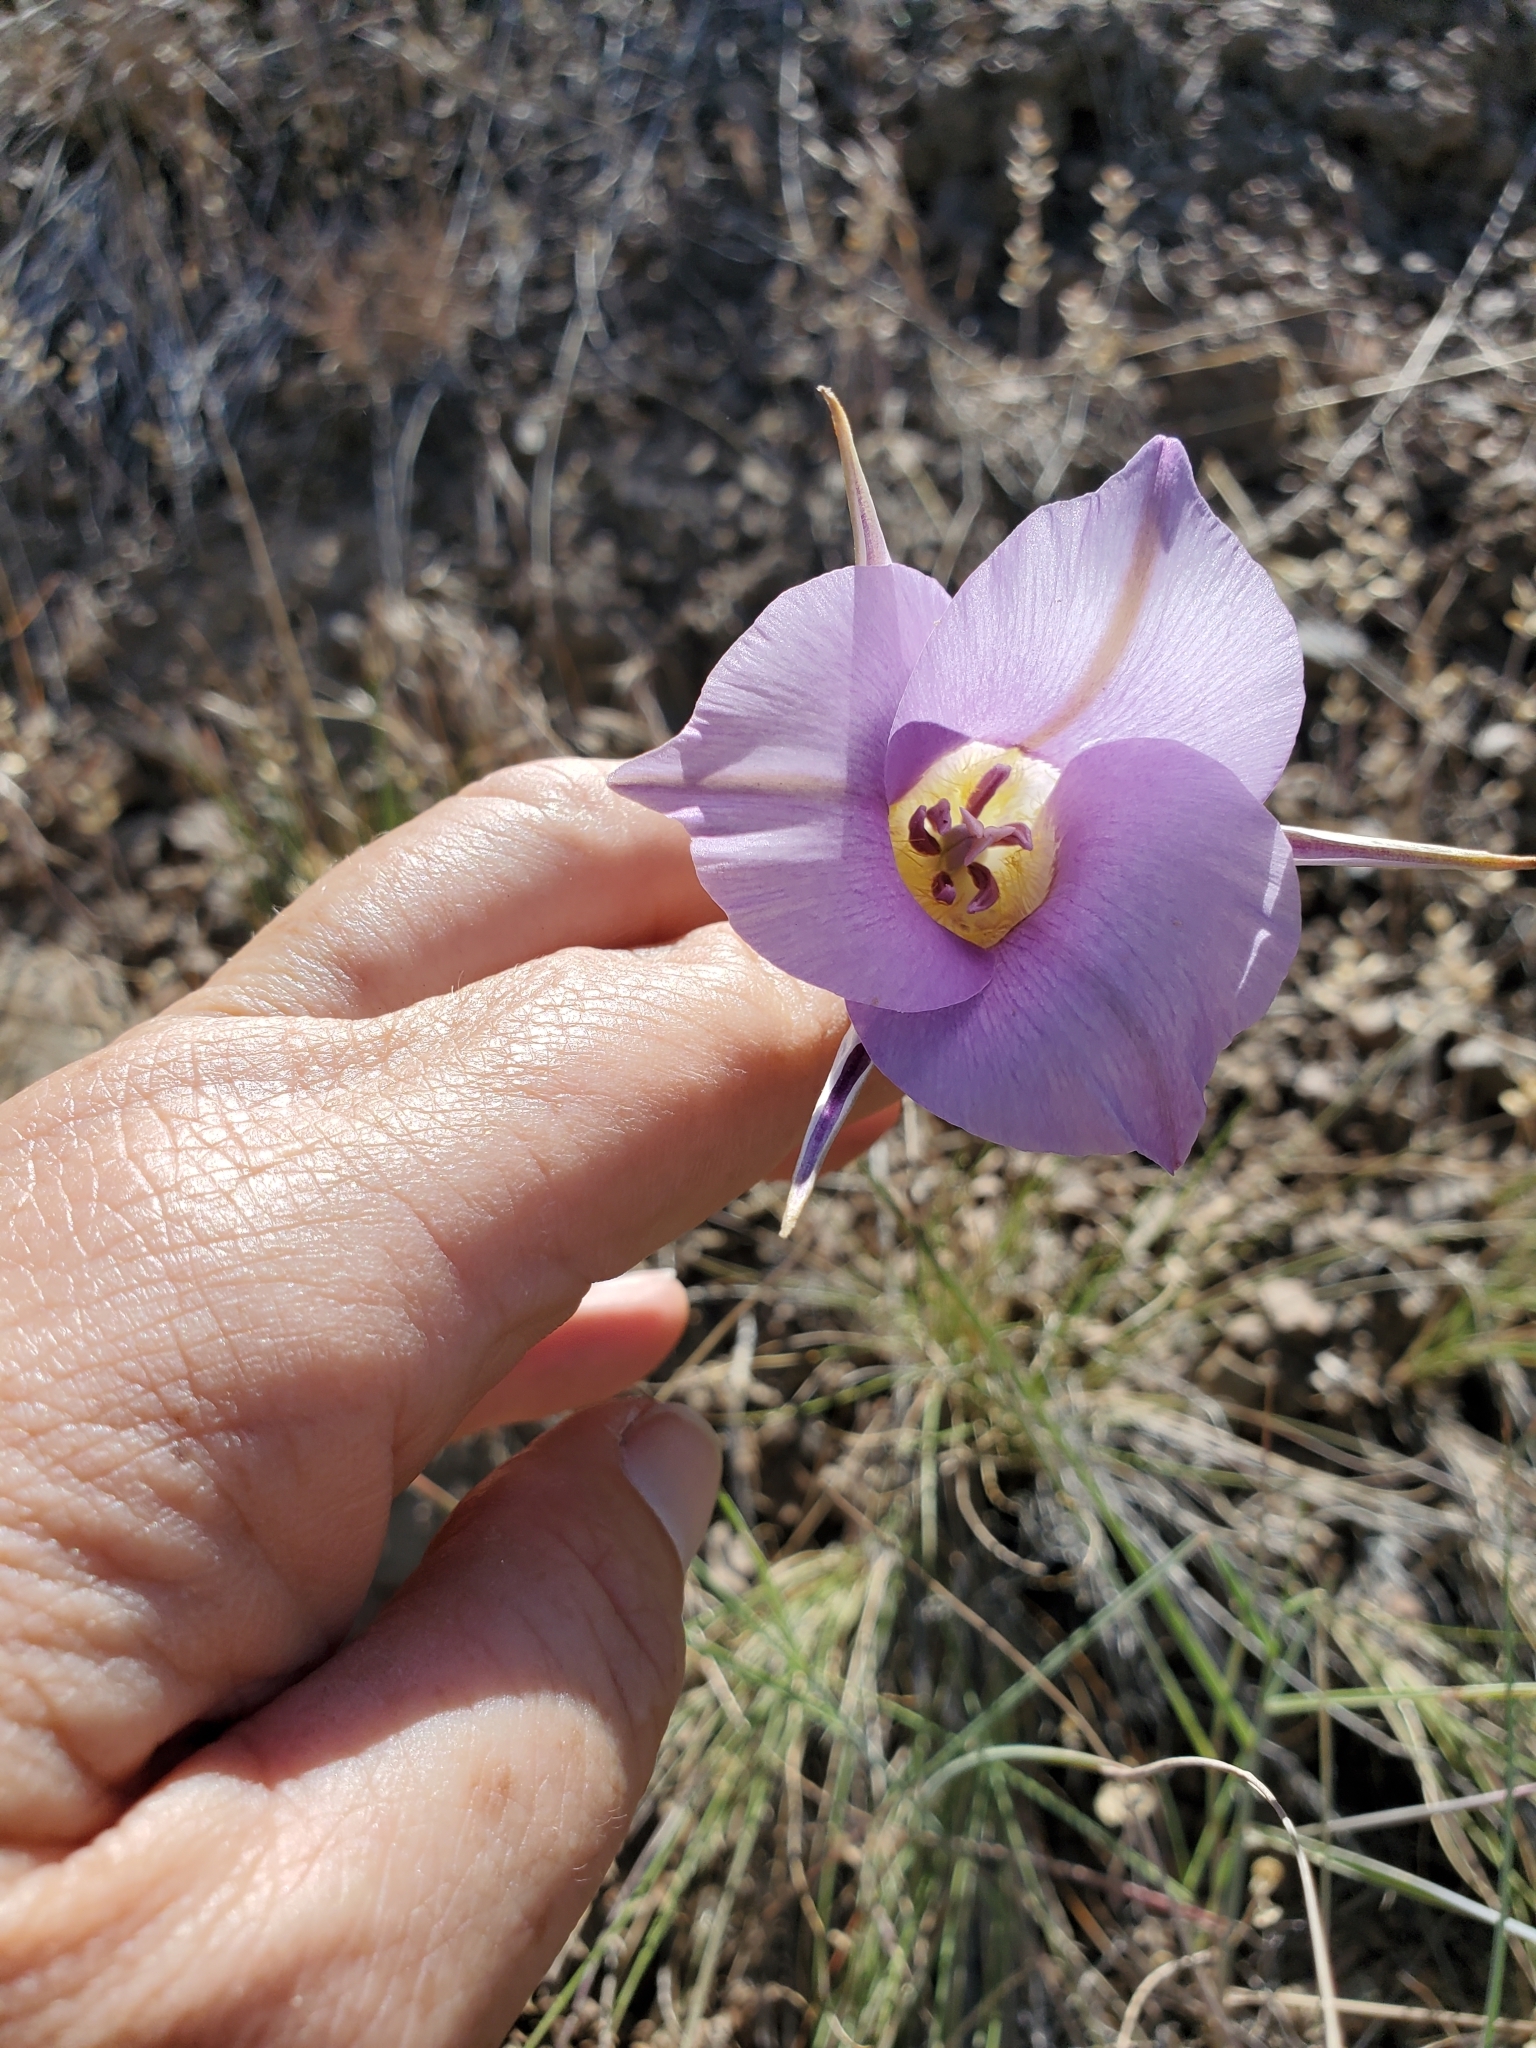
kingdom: Plantae
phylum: Tracheophyta
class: Liliopsida
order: Liliales
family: Liliaceae
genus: Calochortus
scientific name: Calochortus macrocarpus
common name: Green-band mariposa lily
